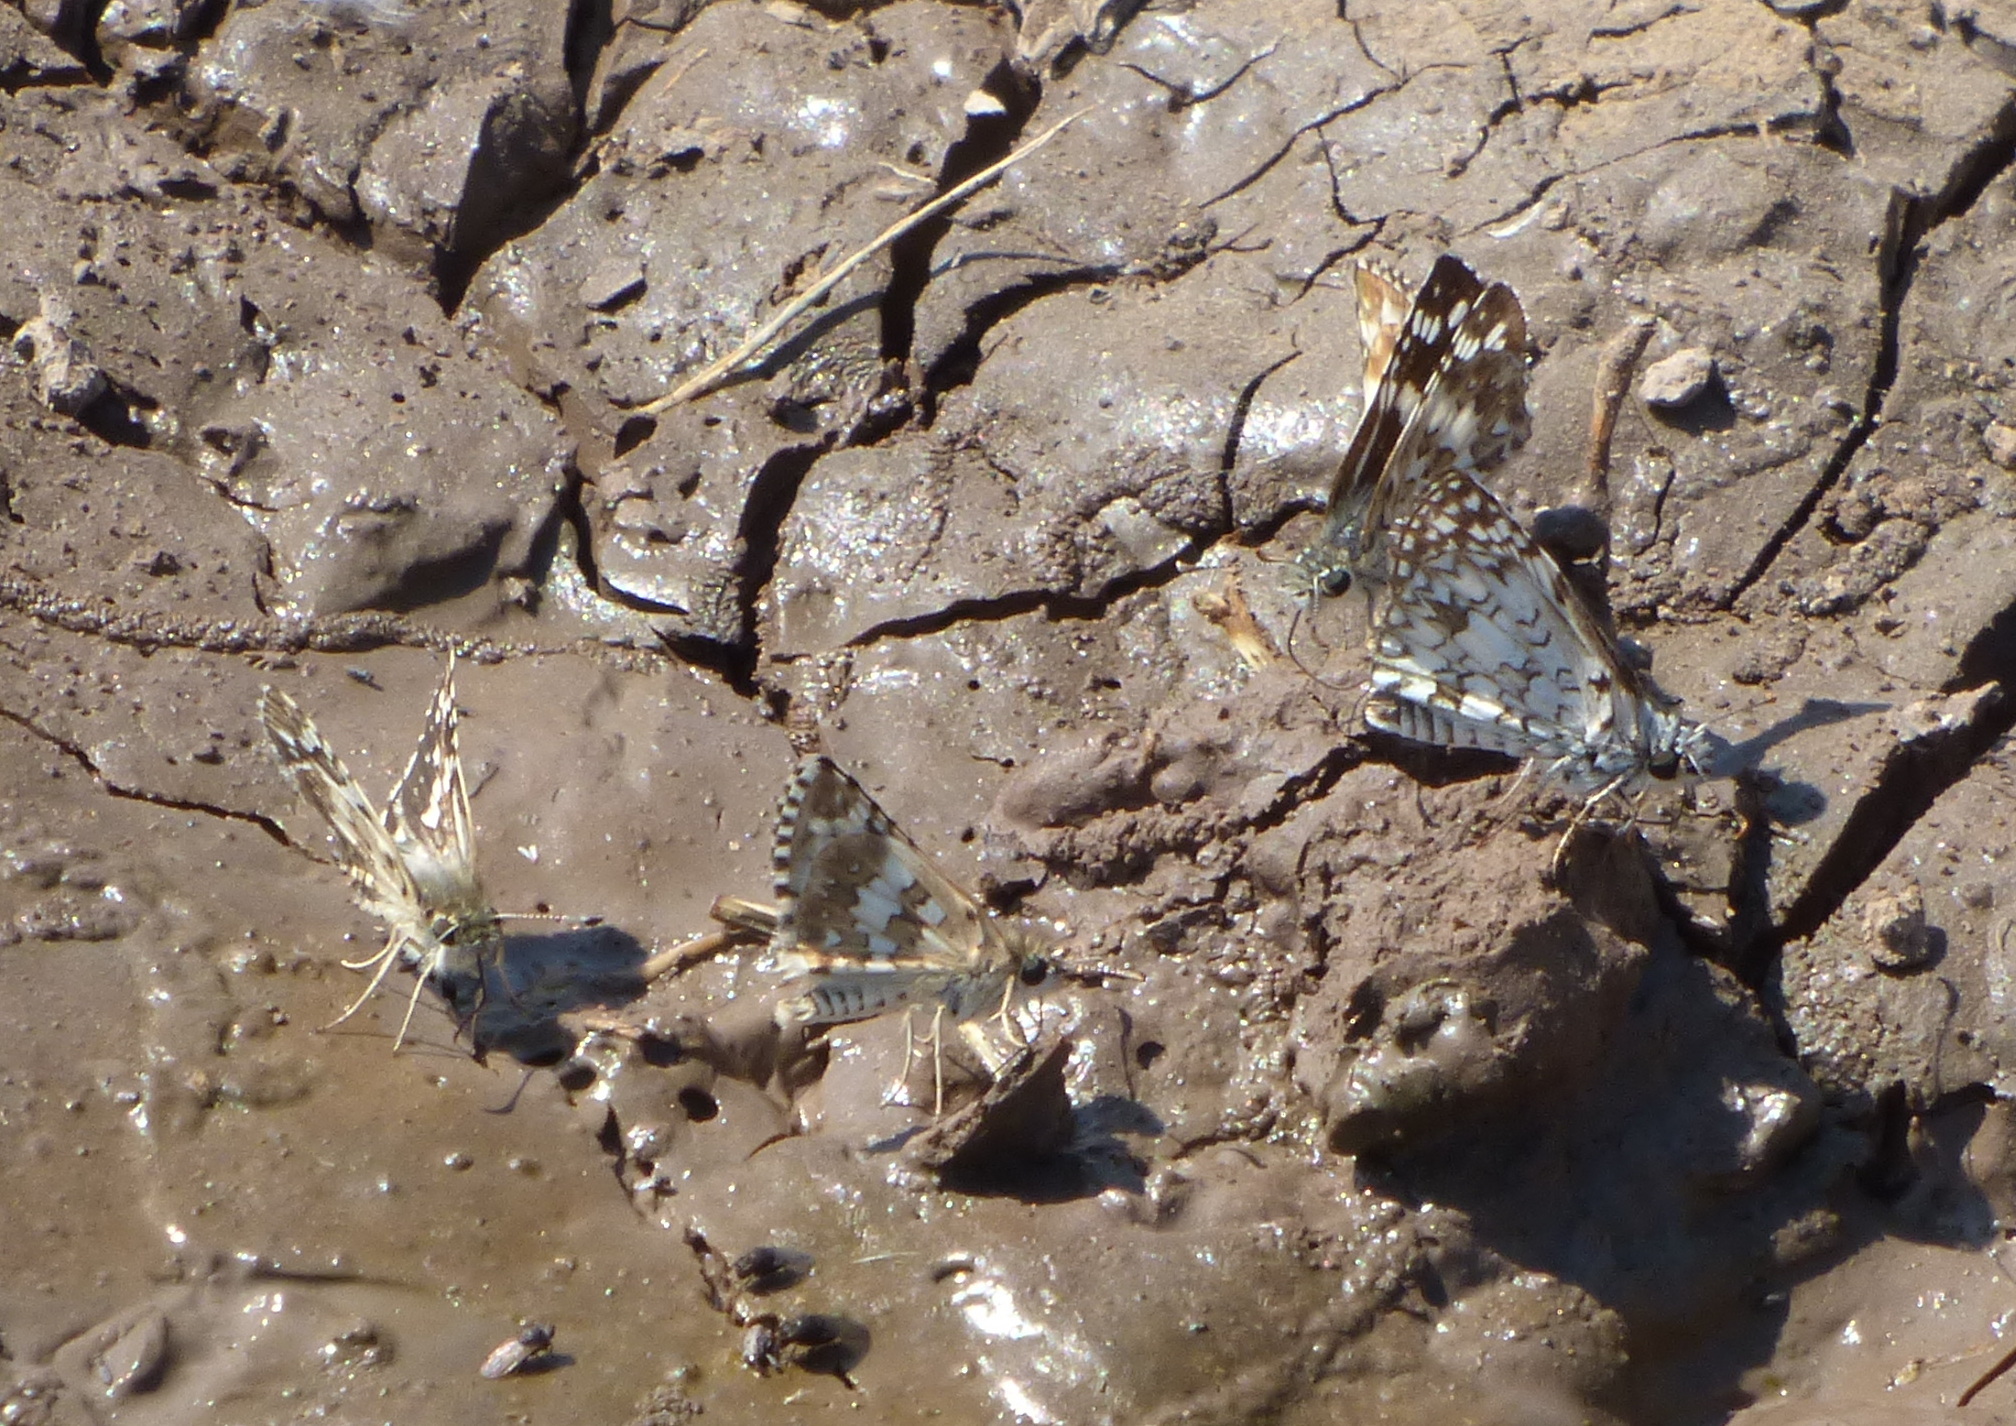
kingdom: Animalia
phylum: Arthropoda
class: Insecta
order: Lepidoptera
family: Hesperiidae
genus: Pyrgus
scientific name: Pyrgus oileus
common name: Tropical checkered-skipper
